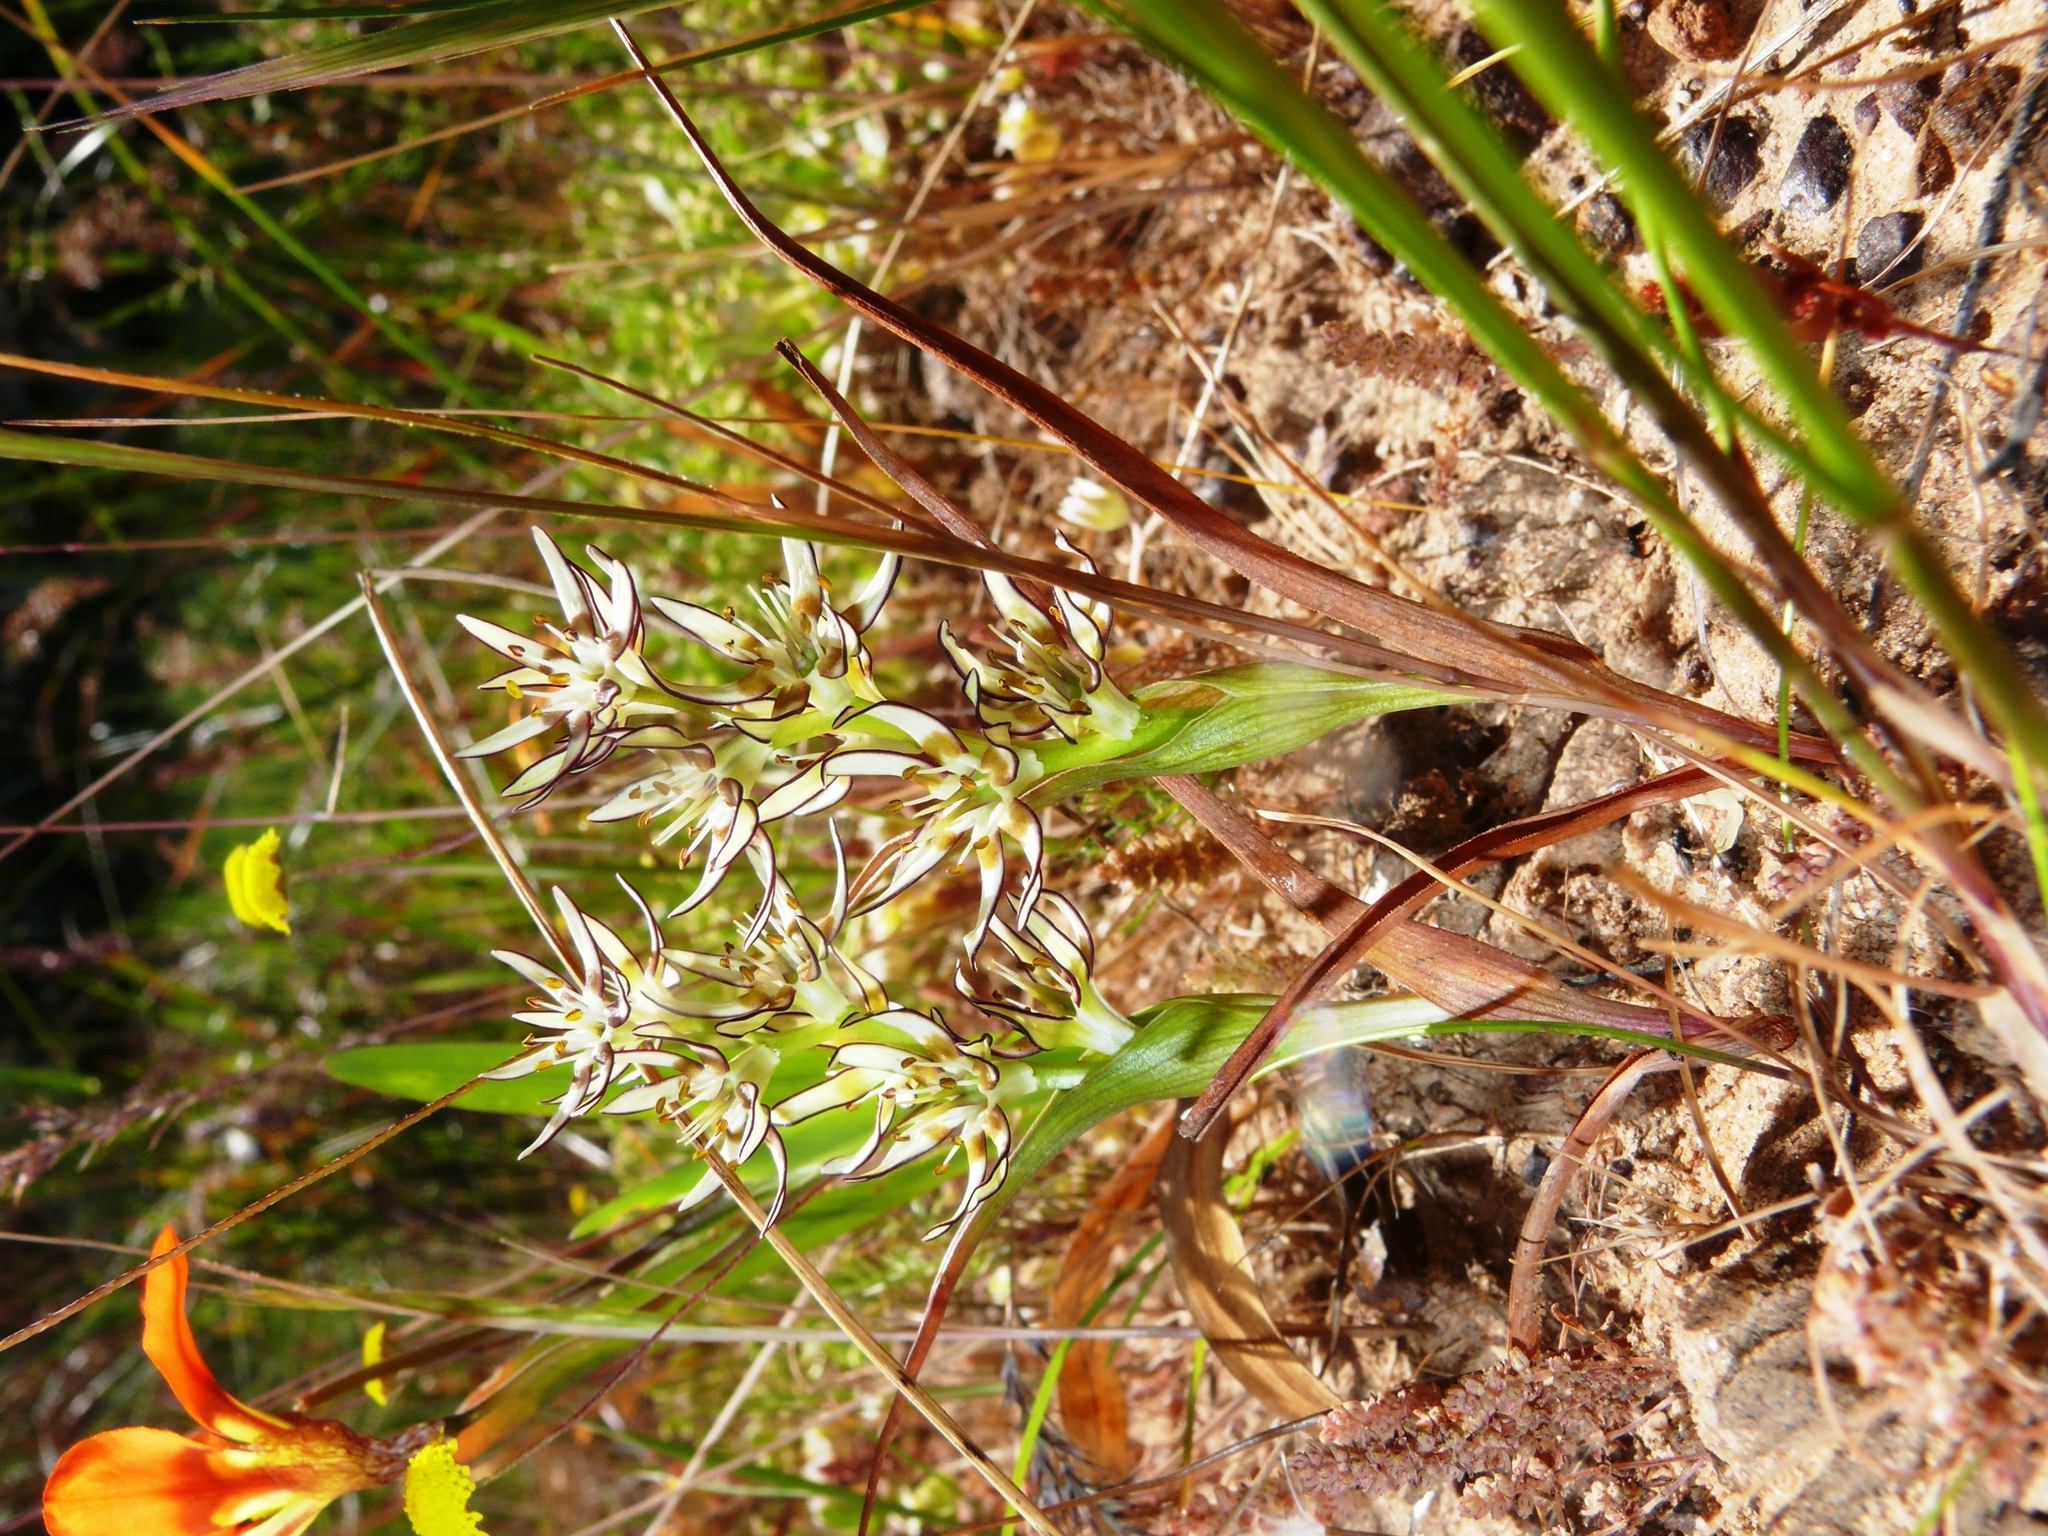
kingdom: Plantae
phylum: Tracheophyta
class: Liliopsida
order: Liliales
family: Colchicaceae
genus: Wurmbea
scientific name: Wurmbea spicata
